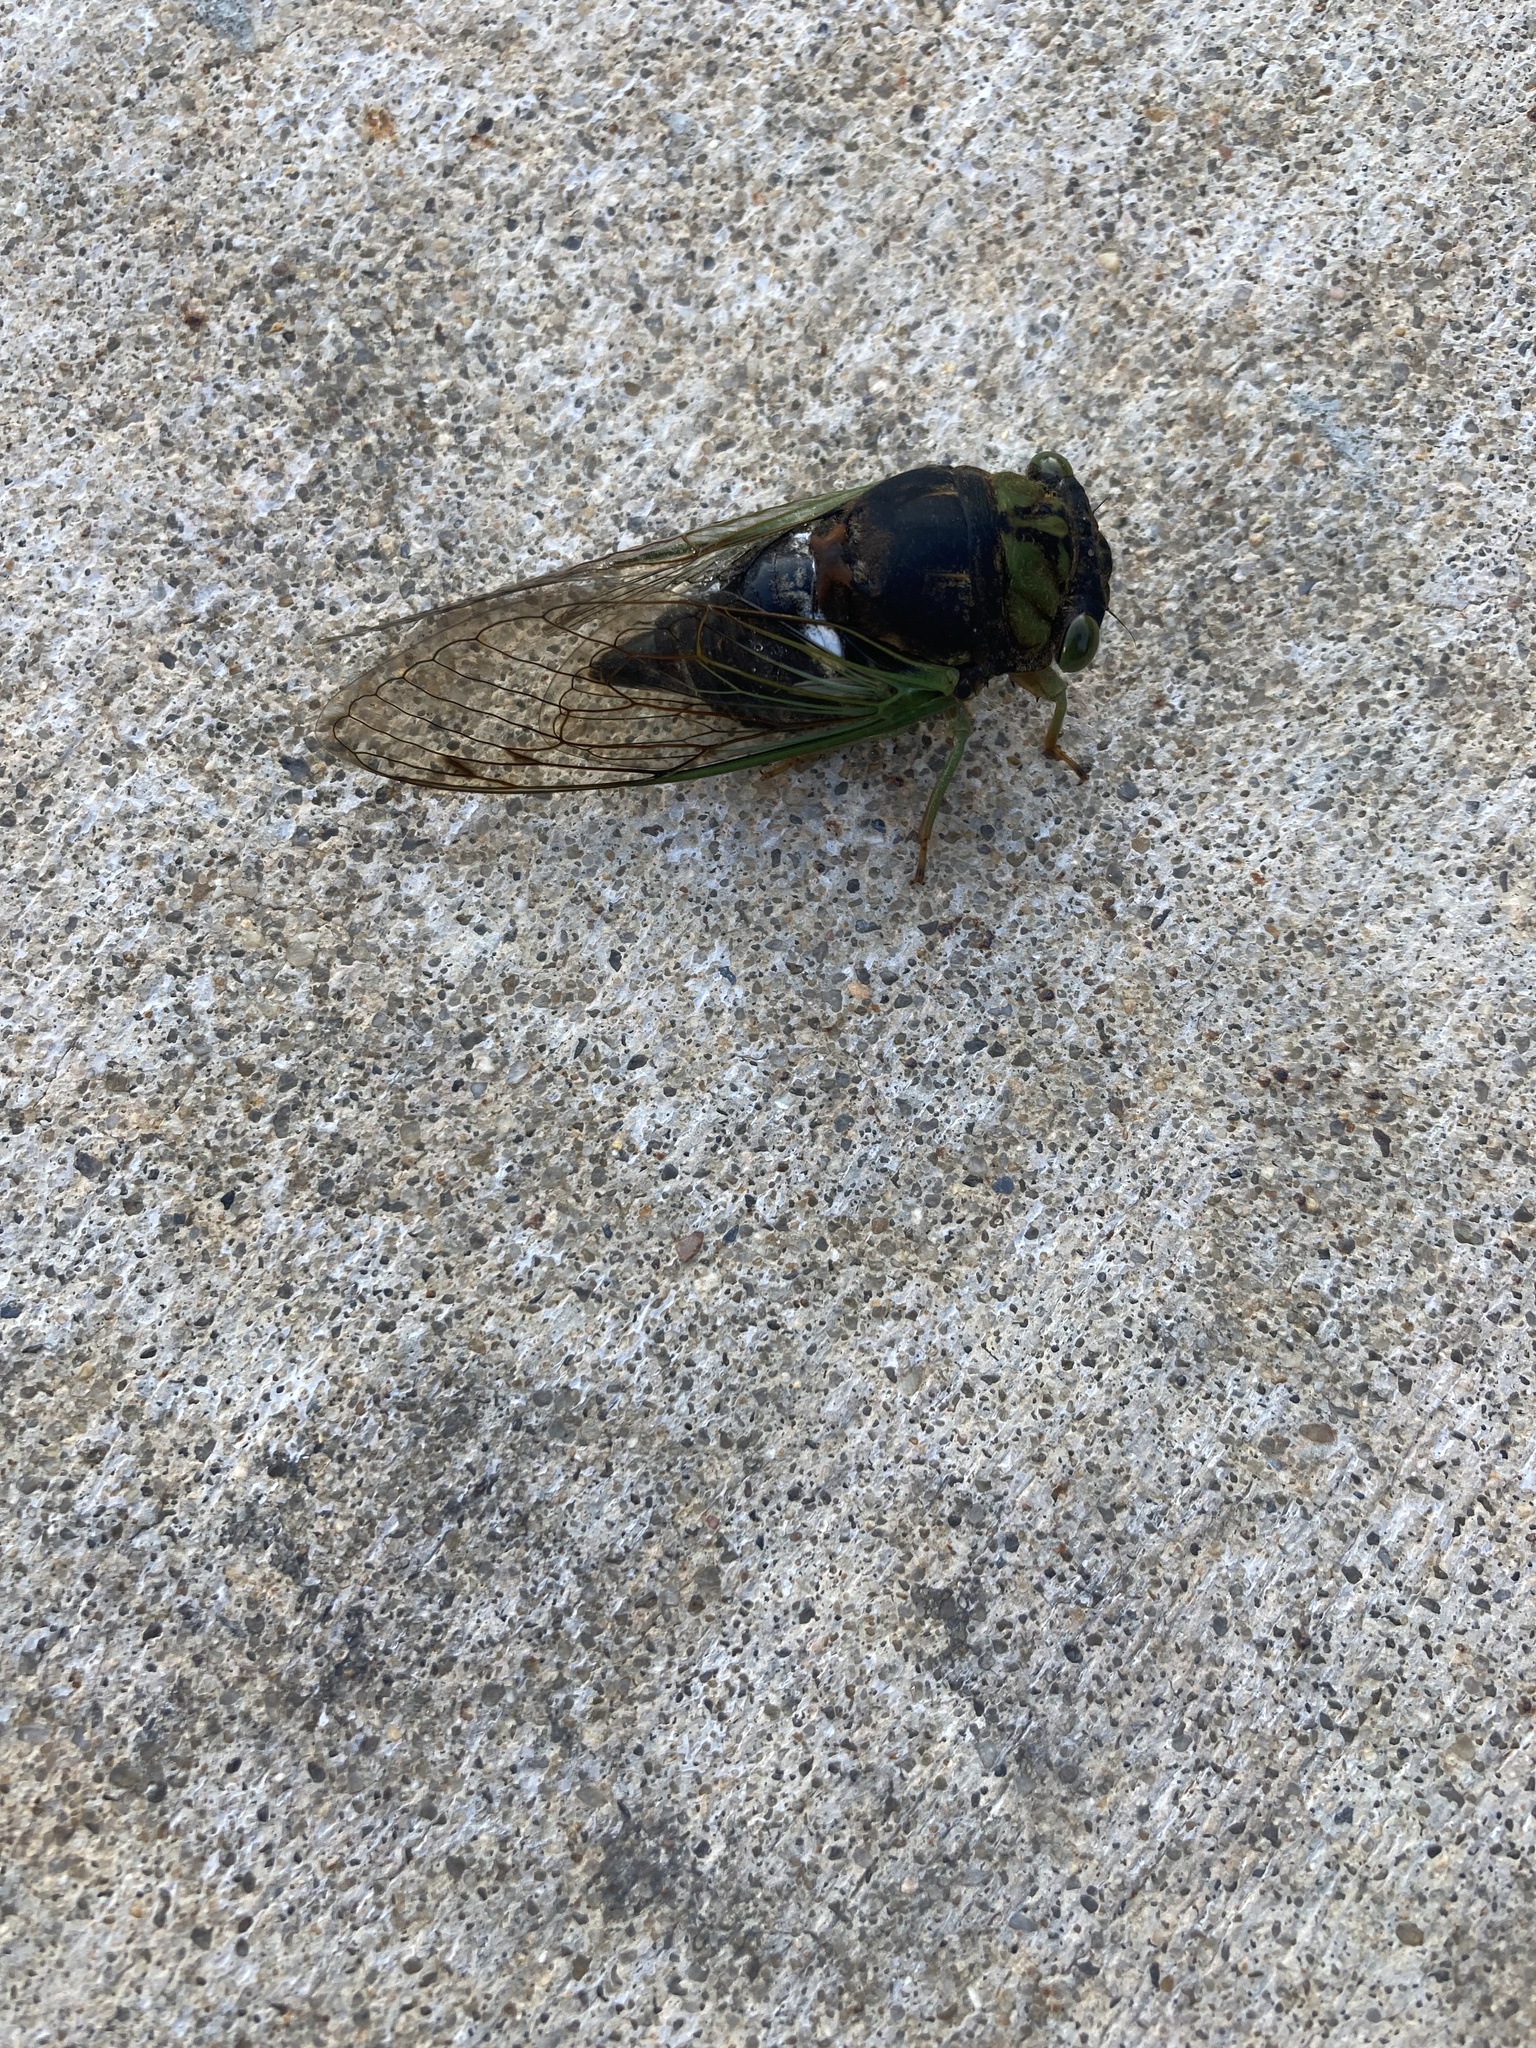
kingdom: Animalia
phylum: Arthropoda
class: Insecta
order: Hemiptera
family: Cicadidae
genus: Neotibicen
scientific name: Neotibicen tibicen
